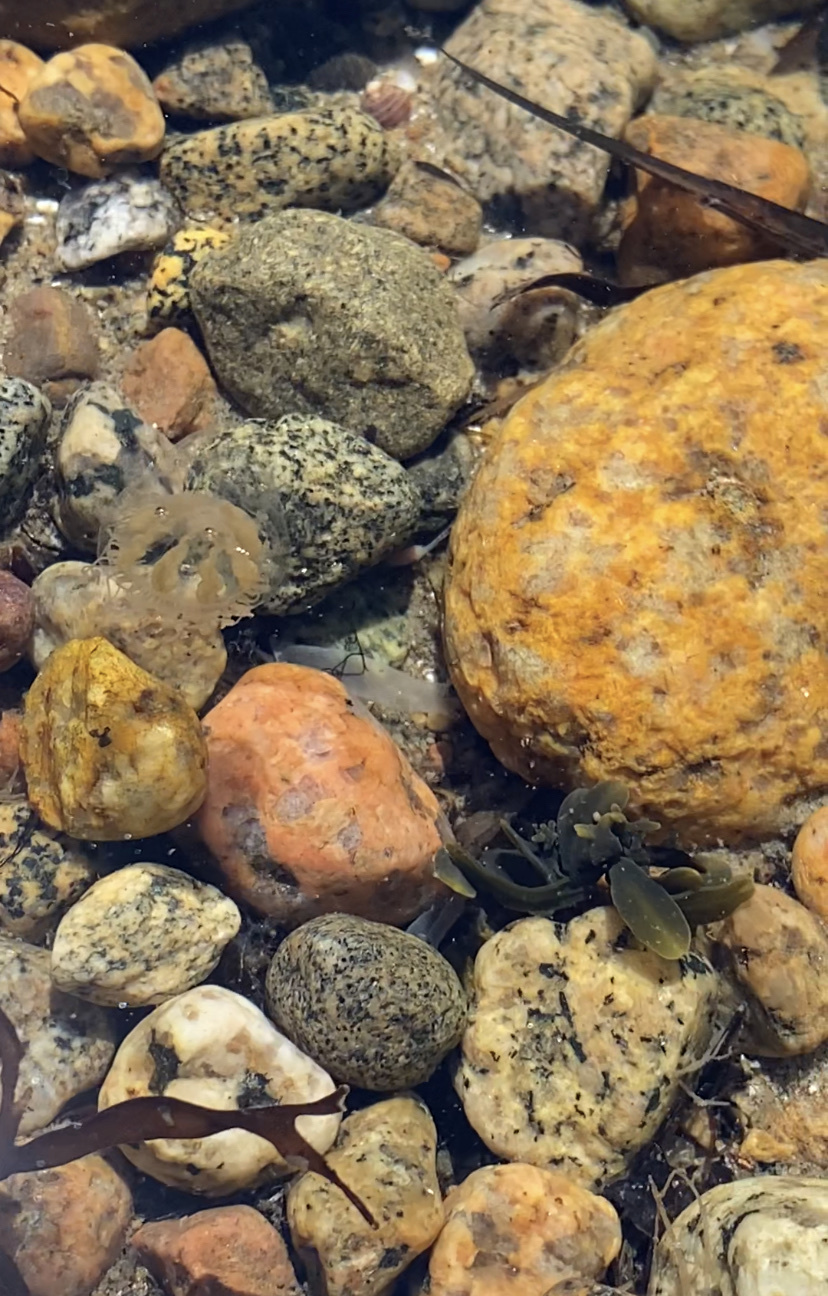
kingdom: Animalia
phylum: Cnidaria
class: Hydrozoa
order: Leptothecata
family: Melicertidae
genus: Melicertum
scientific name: Melicertum octocostatum
